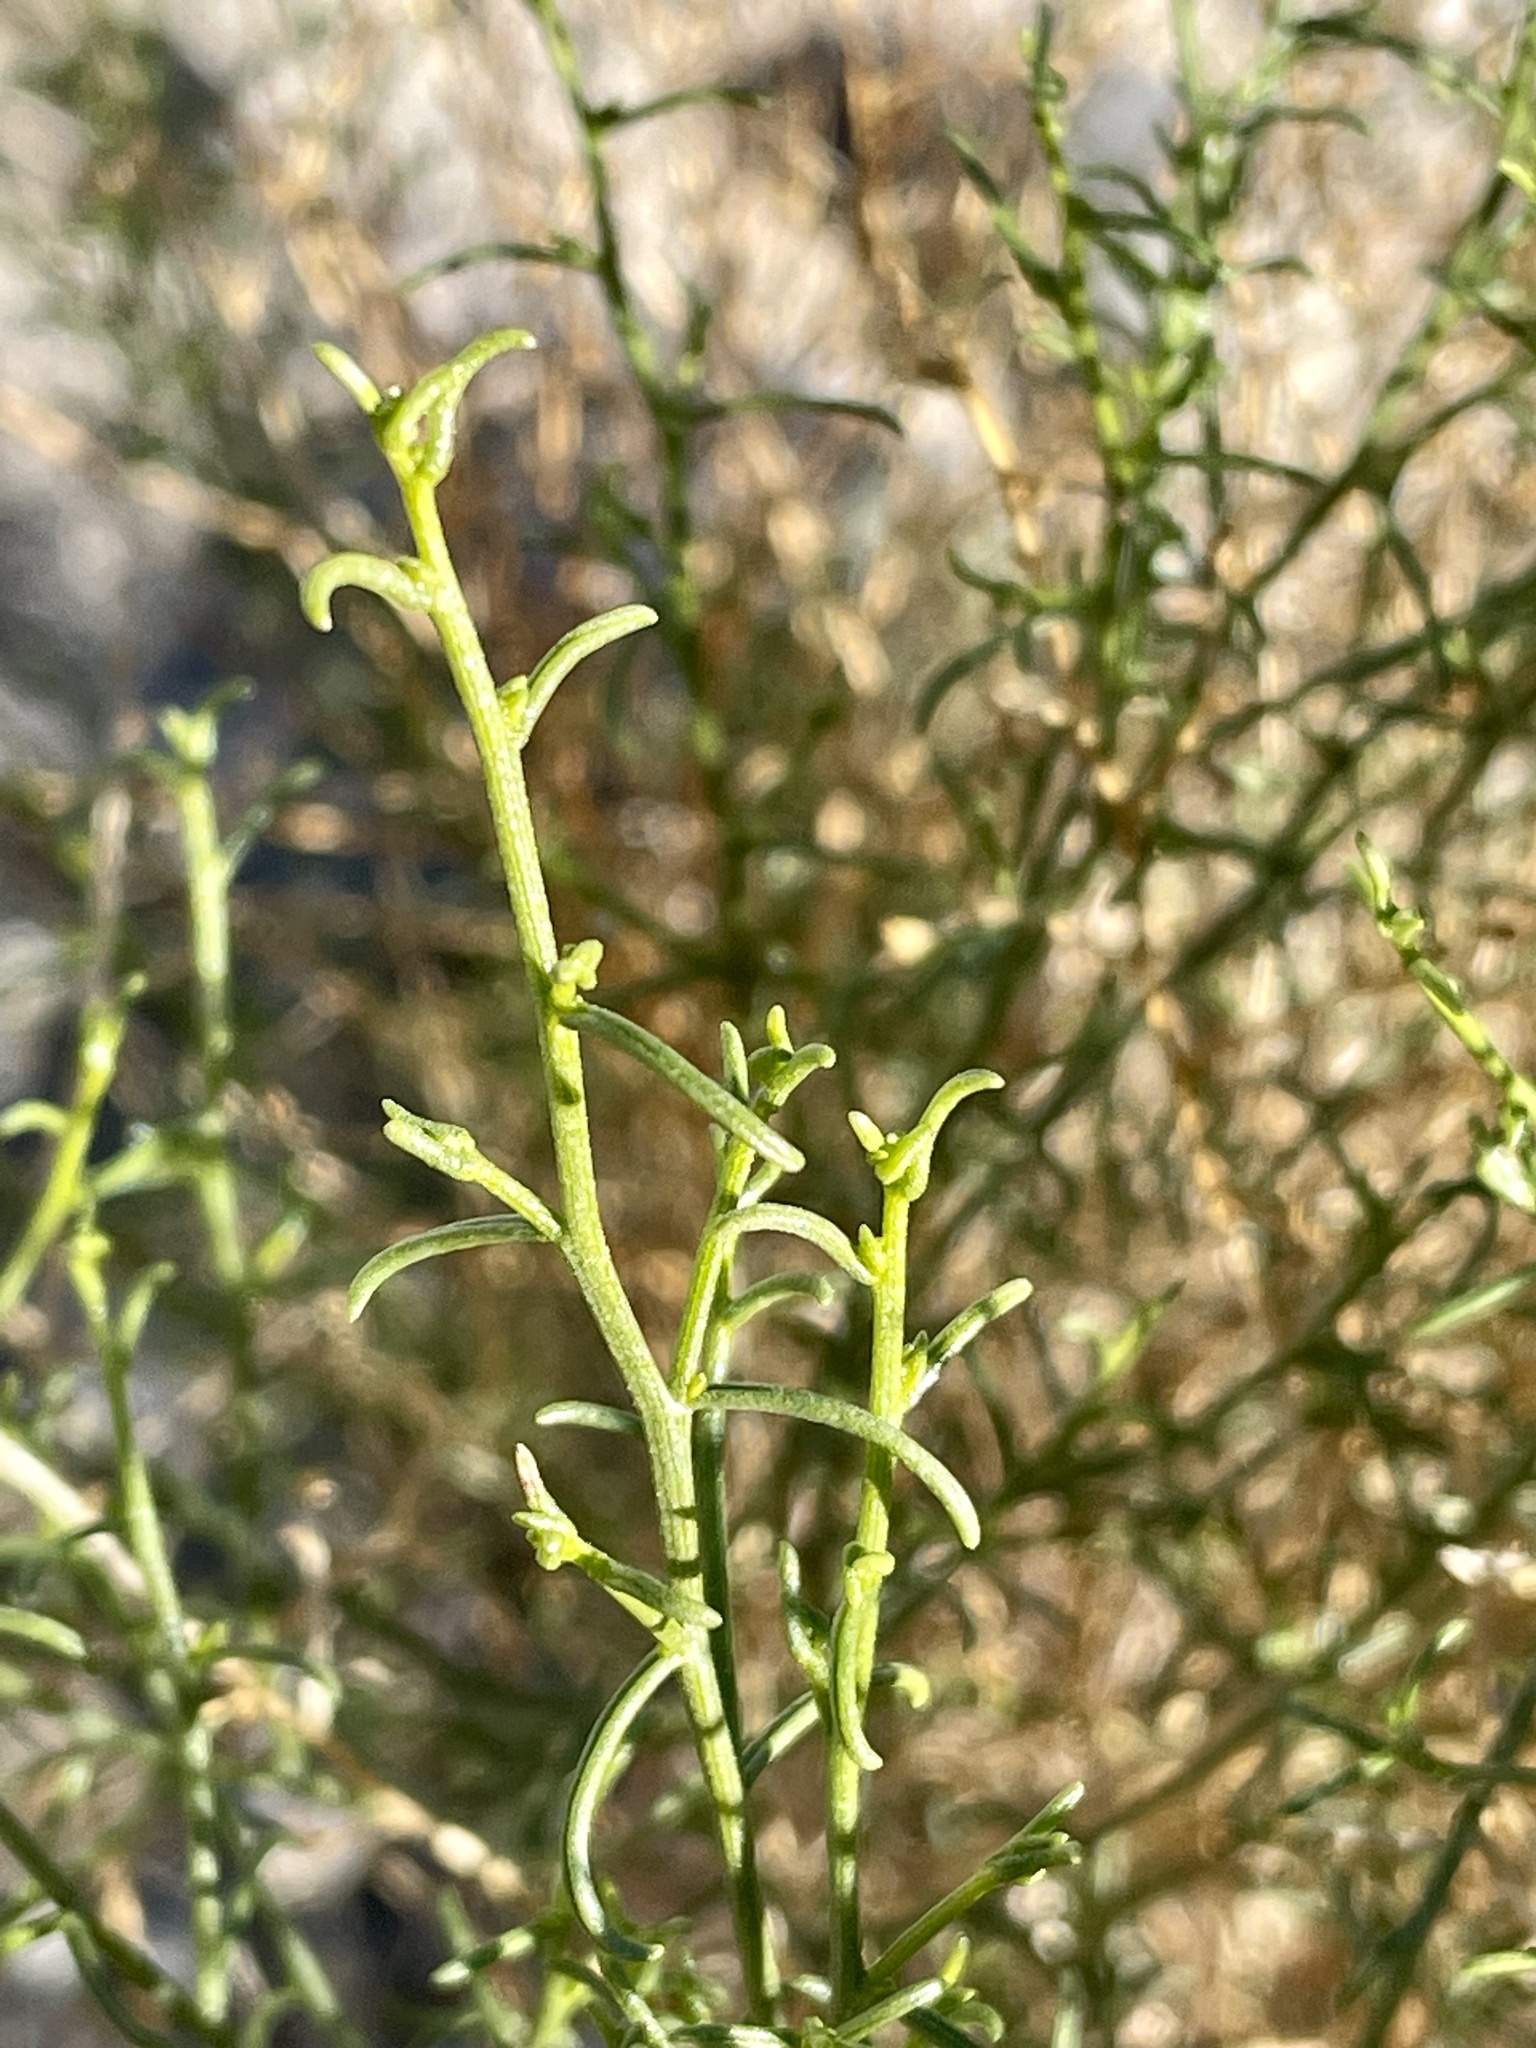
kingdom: Plantae
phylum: Tracheophyta
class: Magnoliopsida
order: Asterales
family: Asteraceae
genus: Ambrosia
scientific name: Ambrosia salsola
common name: Burrobrush
